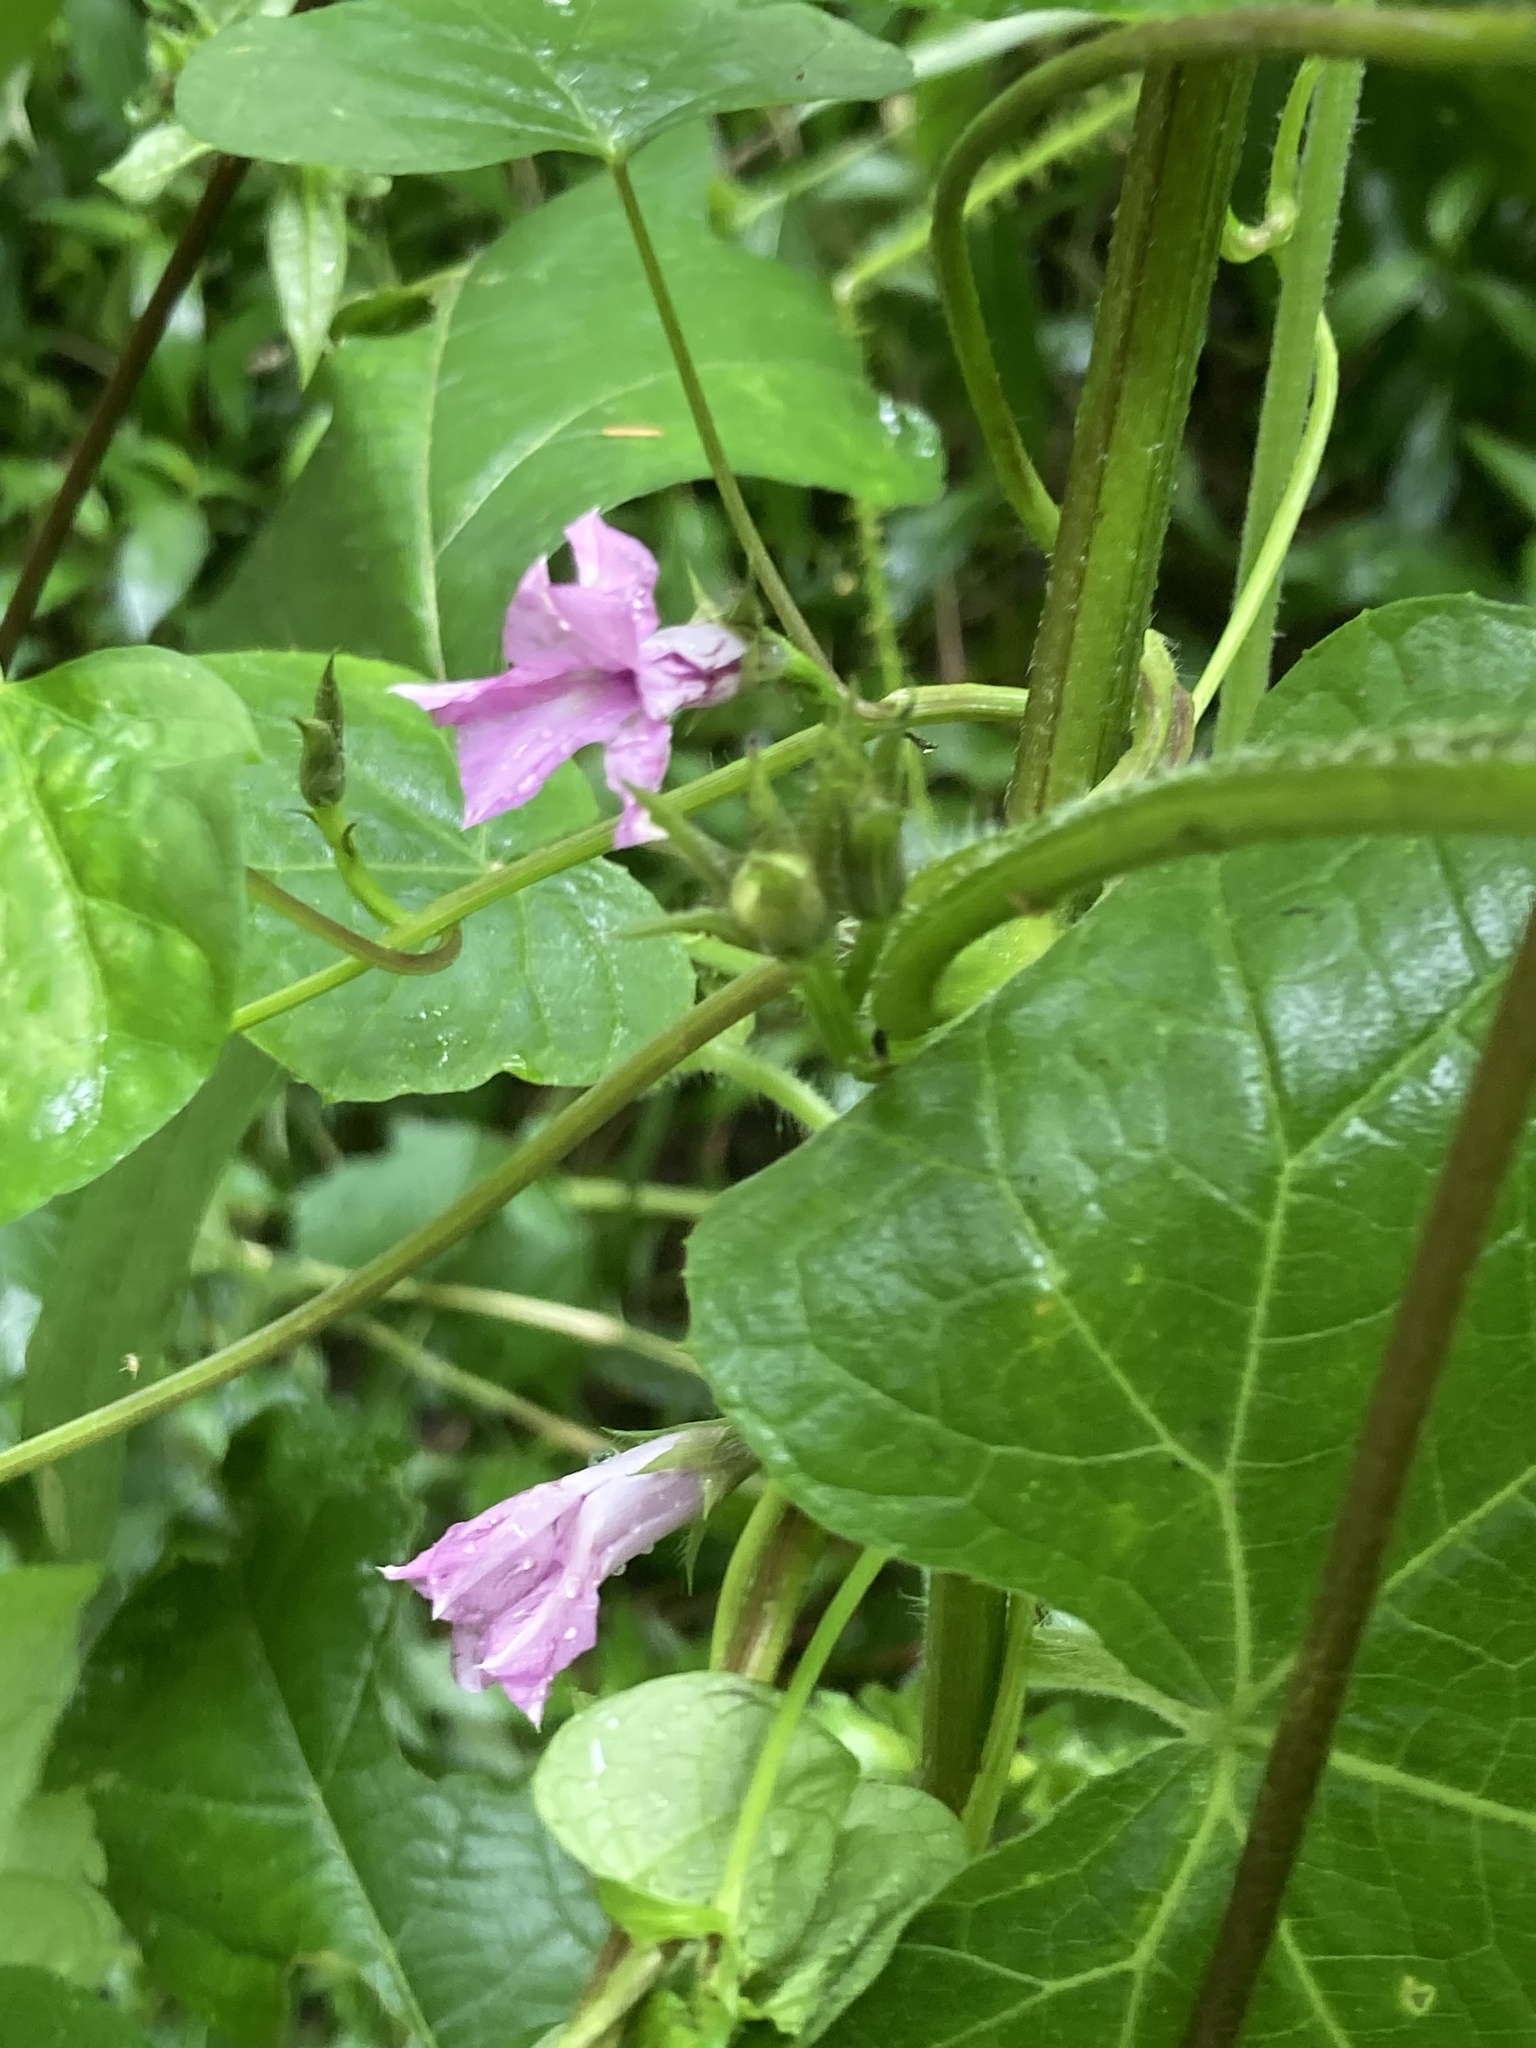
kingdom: Plantae
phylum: Tracheophyta
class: Magnoliopsida
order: Solanales
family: Convolvulaceae
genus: Ipomoea
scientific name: Ipomoea triloba
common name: Little-bell
